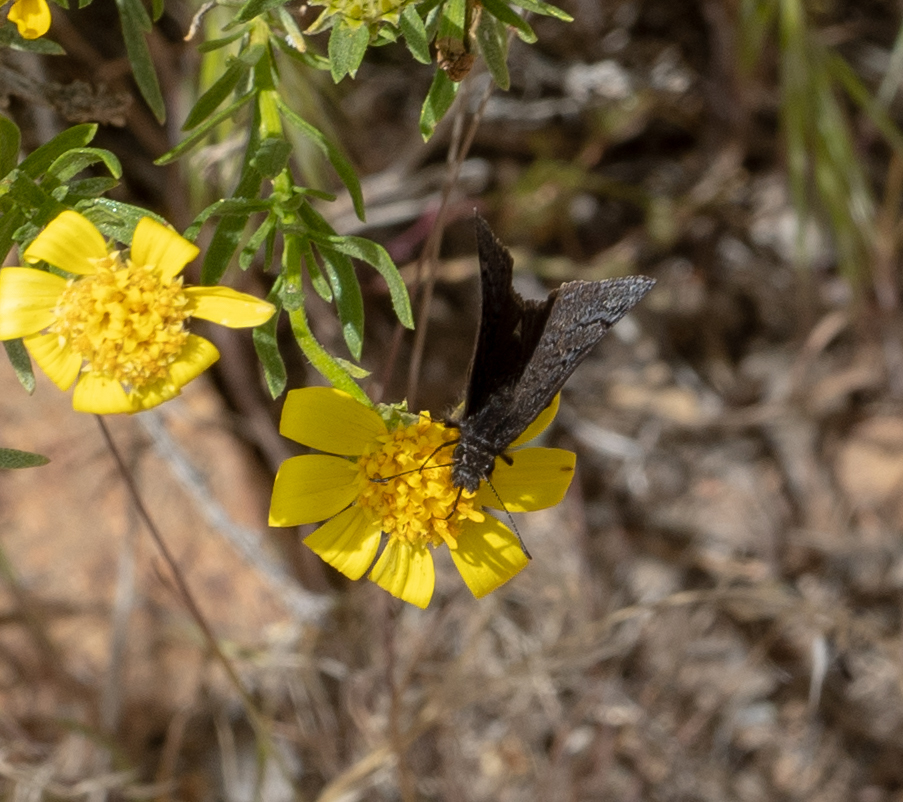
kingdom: Animalia
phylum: Arthropoda
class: Insecta
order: Lepidoptera
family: Hesperiidae
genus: Erynnis
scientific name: Erynnis brizo
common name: Sleepy duskywing
